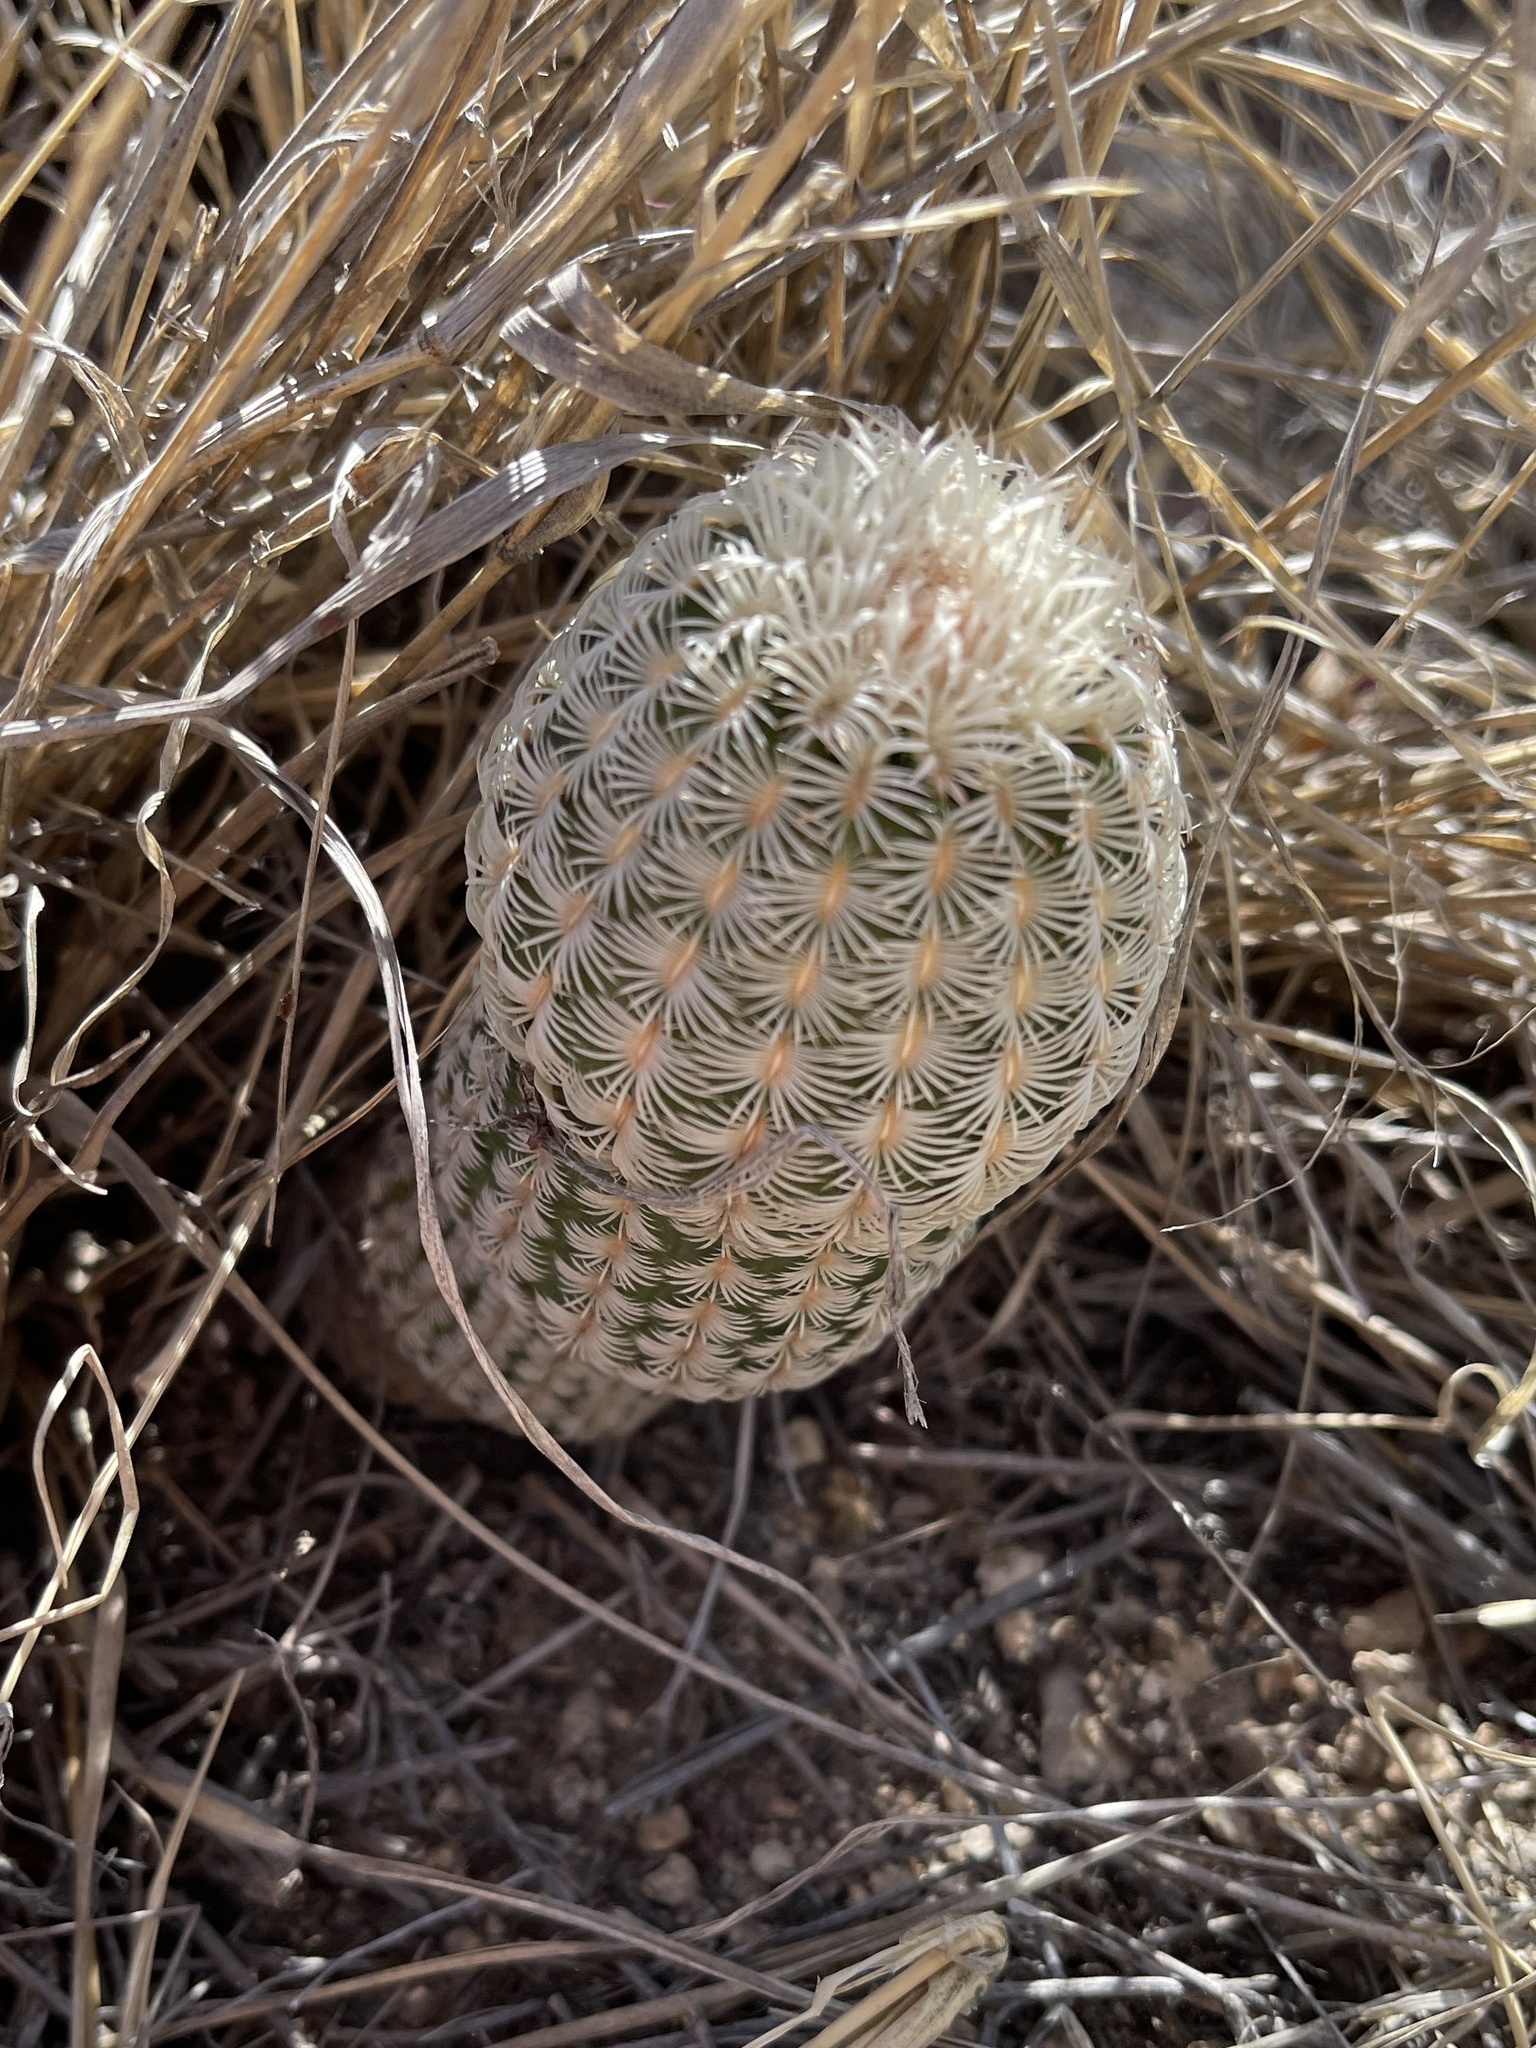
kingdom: Plantae
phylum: Tracheophyta
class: Magnoliopsida
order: Caryophyllales
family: Cactaceae
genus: Echinocereus
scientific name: Echinocereus rigidissimus
